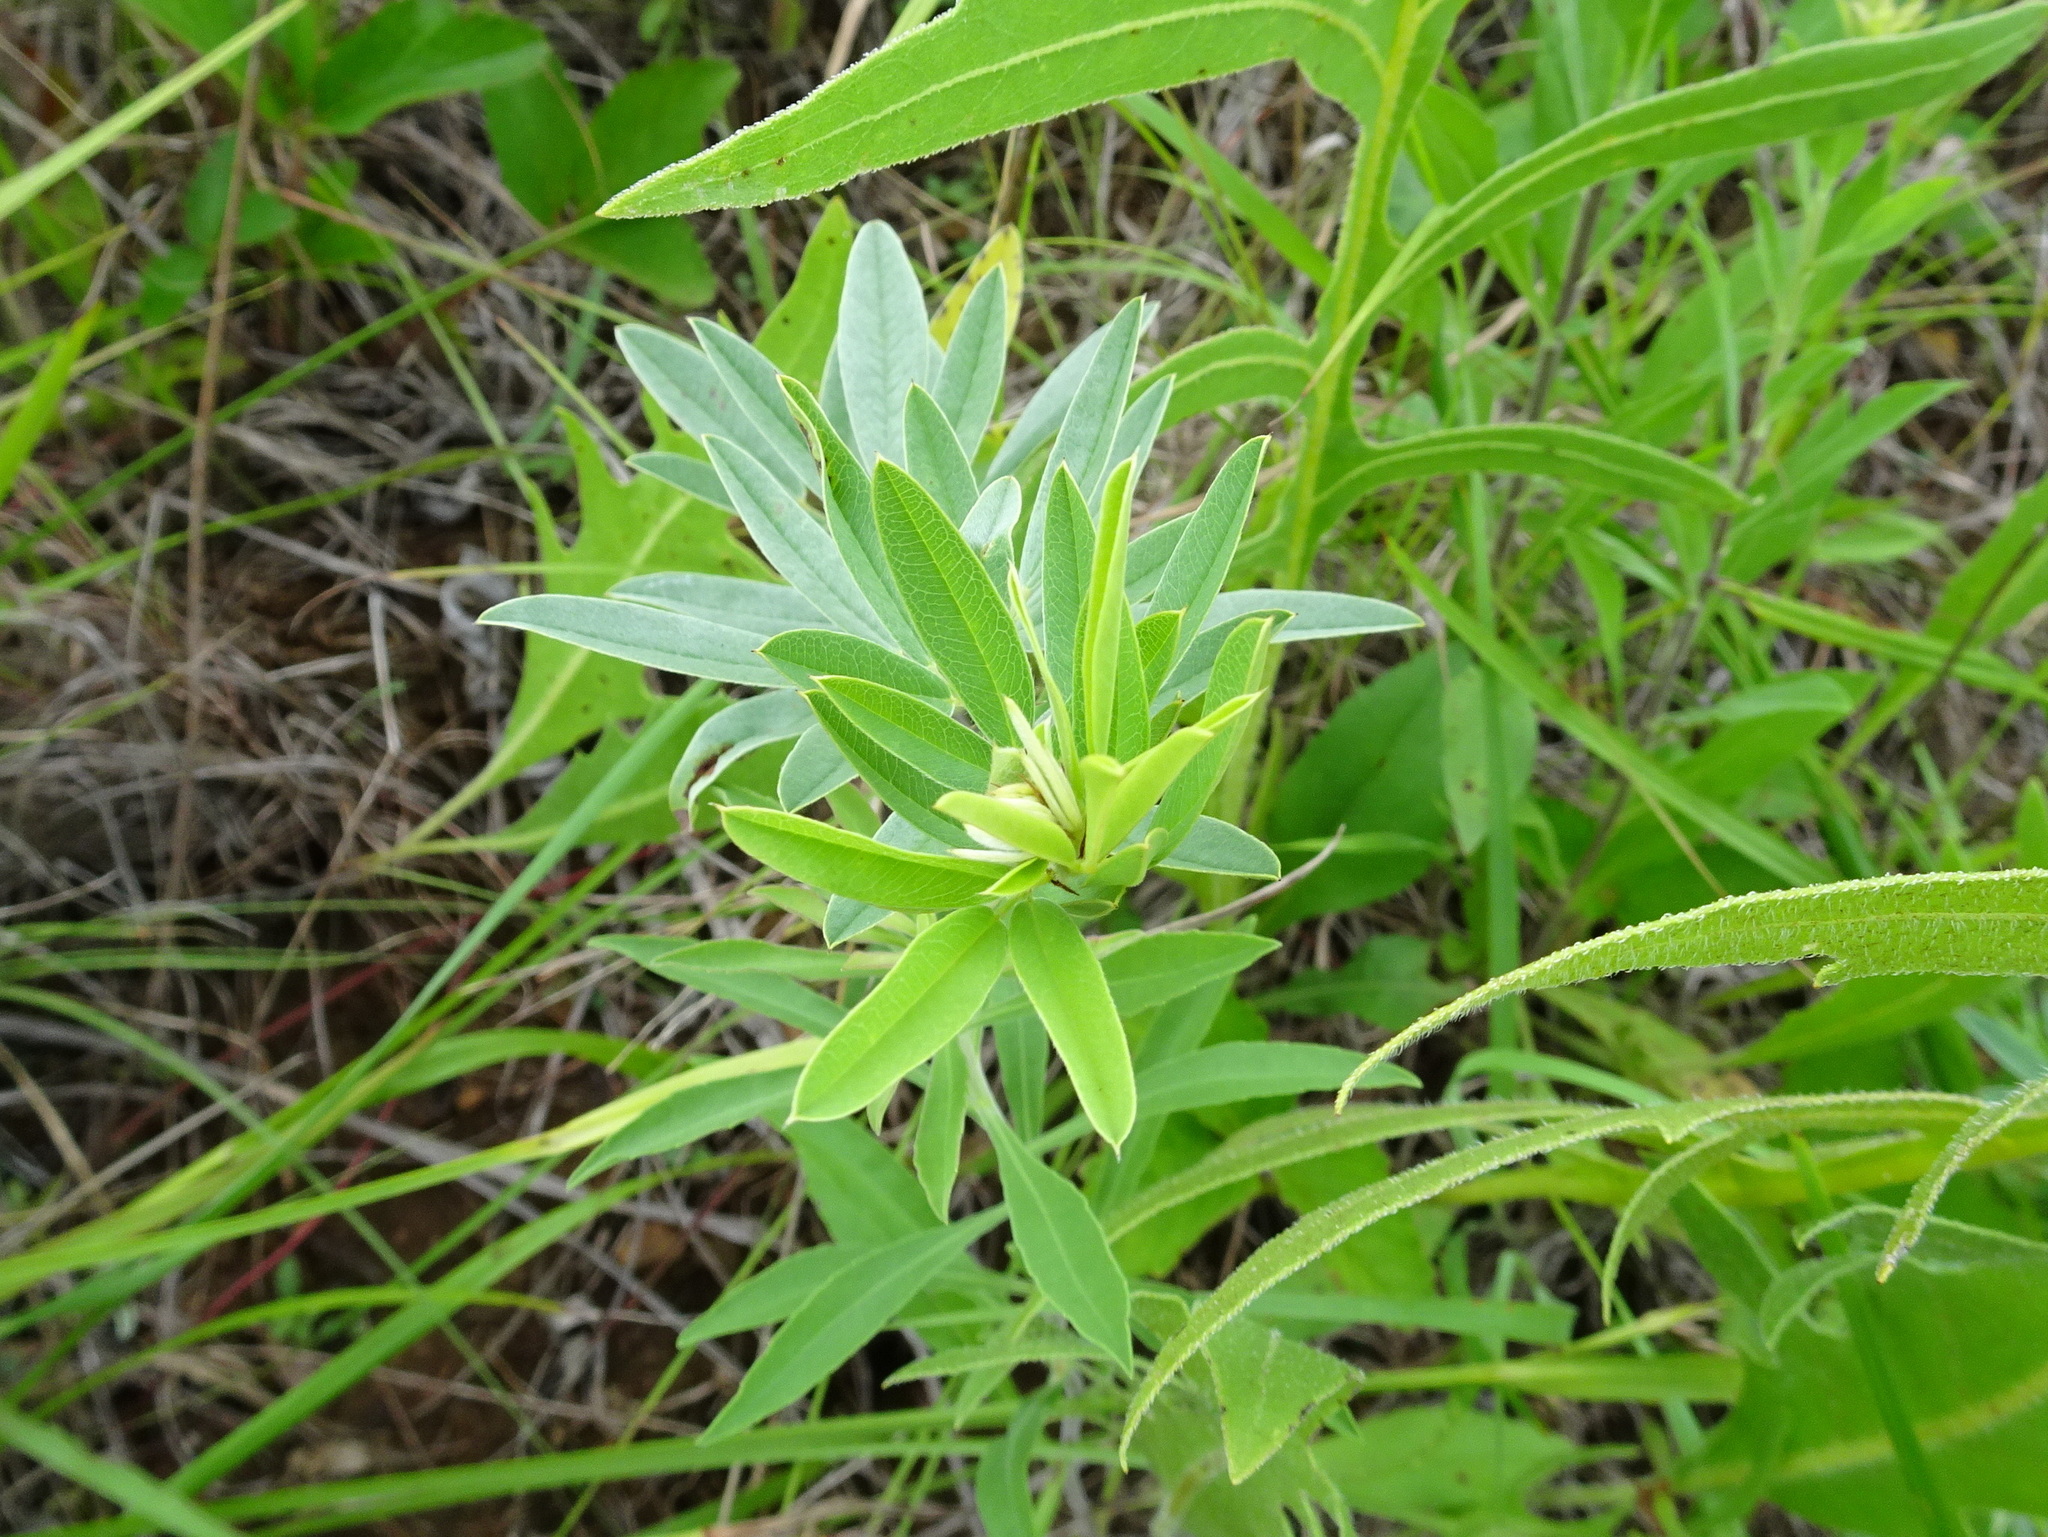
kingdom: Plantae
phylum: Tracheophyta
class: Magnoliopsida
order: Fabales
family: Fabaceae
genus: Lespedeza
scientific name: Lespedeza capitata
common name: Dusty clover
